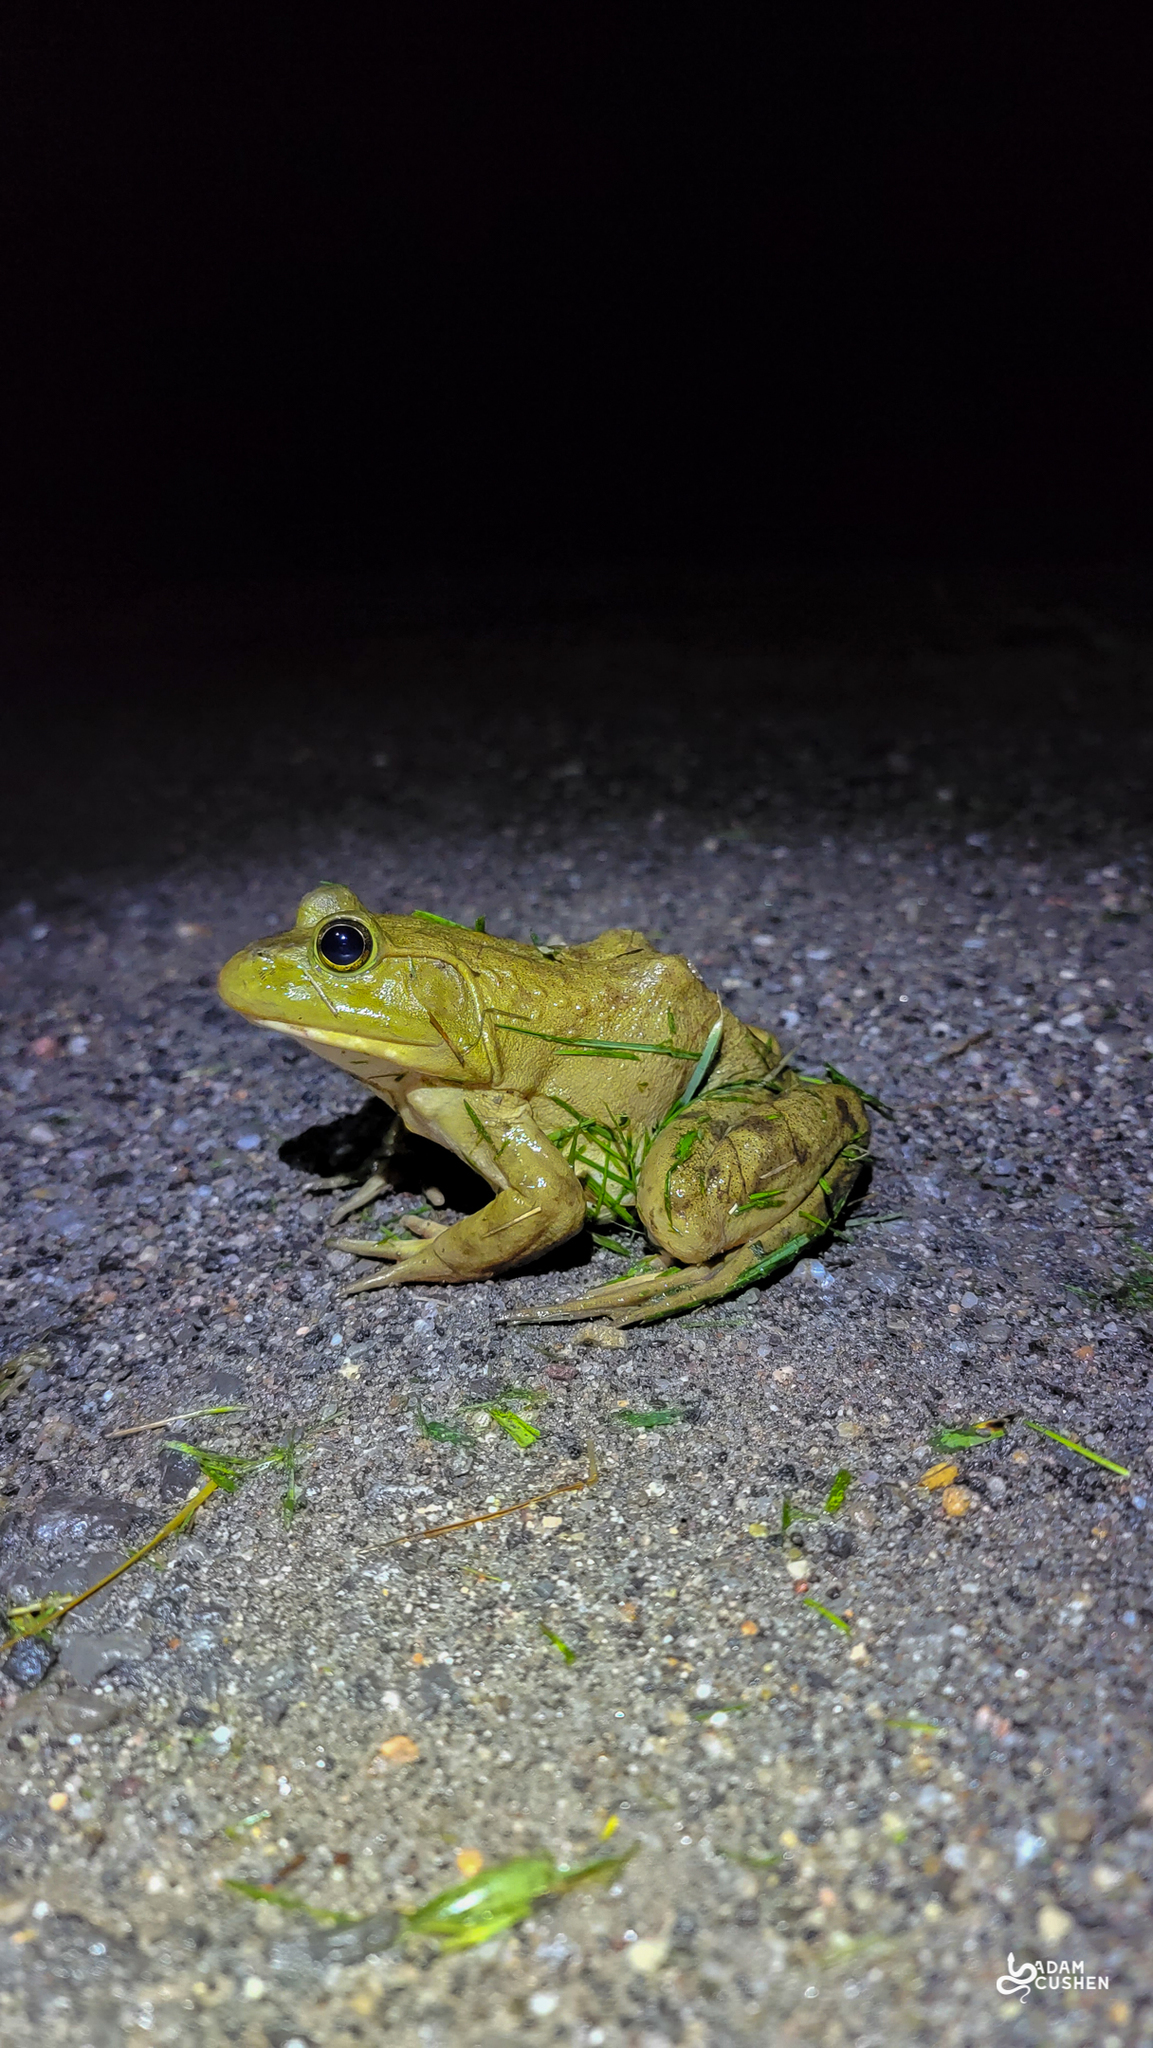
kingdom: Animalia
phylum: Chordata
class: Amphibia
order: Anura
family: Ranidae
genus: Lithobates
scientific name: Lithobates catesbeianus
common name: American bullfrog
